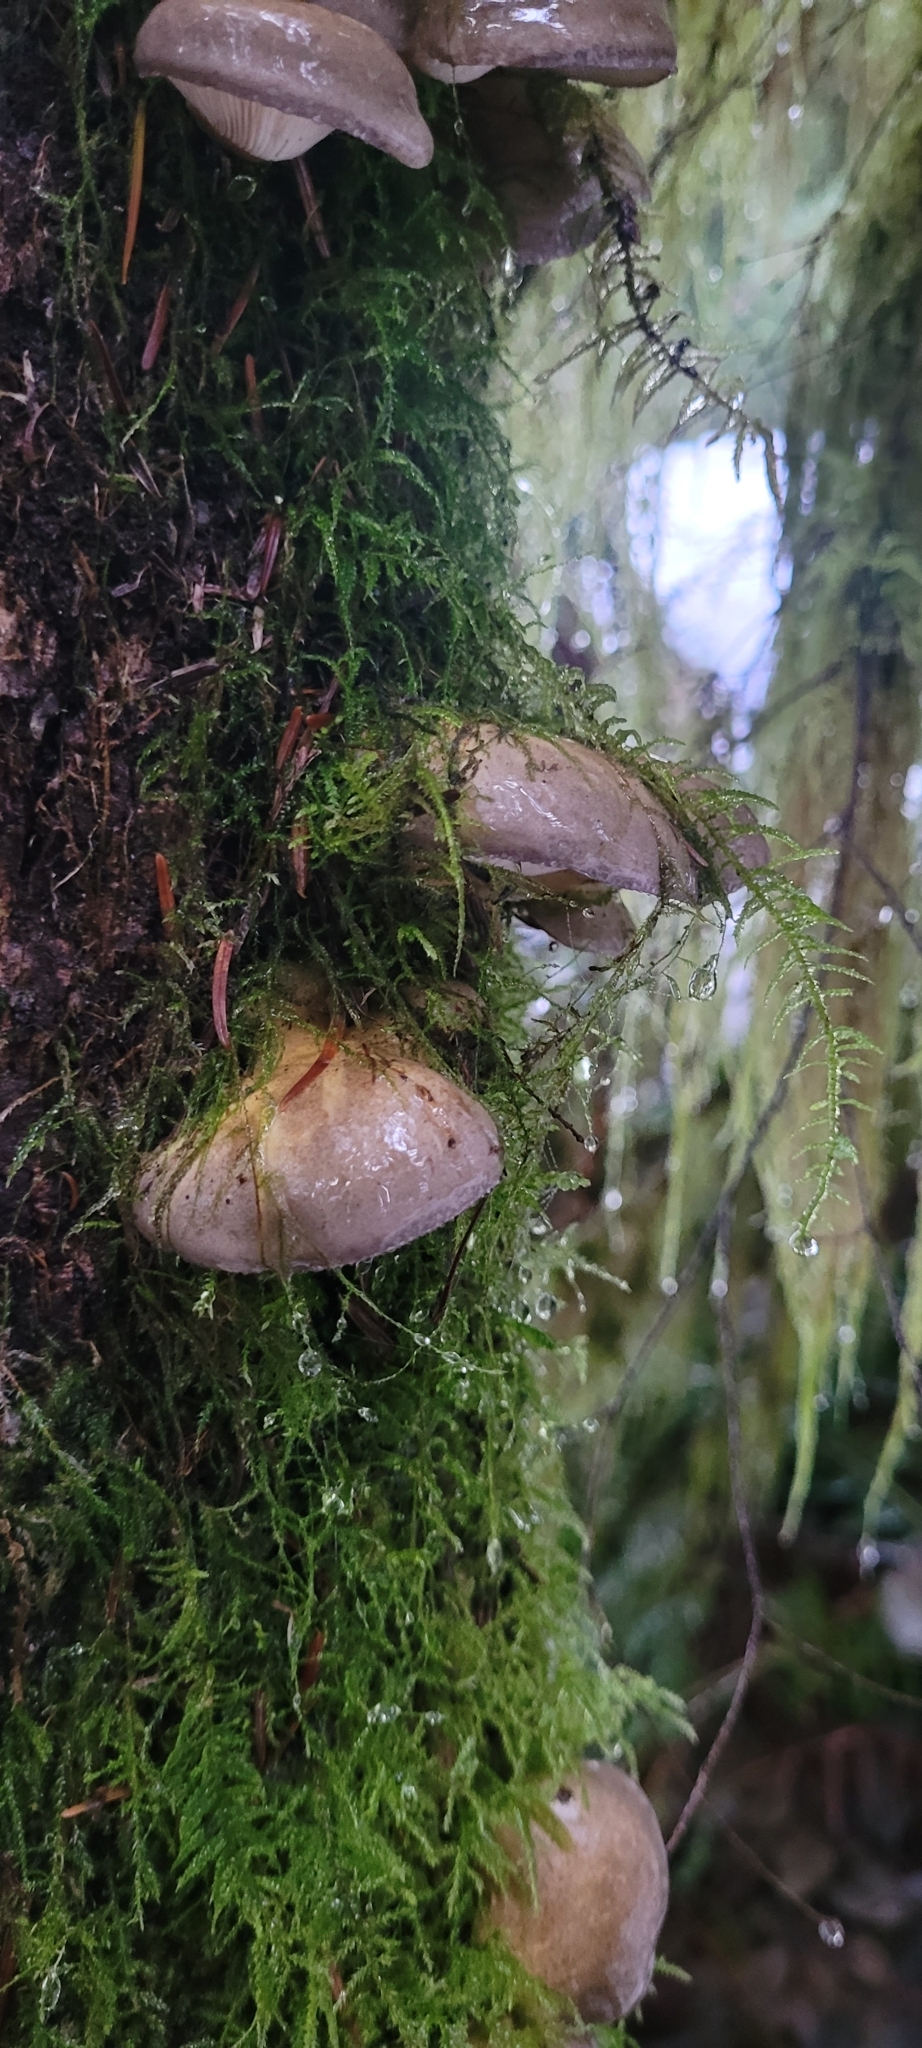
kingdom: Fungi
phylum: Basidiomycota
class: Agaricomycetes
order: Agaricales
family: Sarcomyxaceae
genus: Sarcomyxa
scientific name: Sarcomyxa serotina
